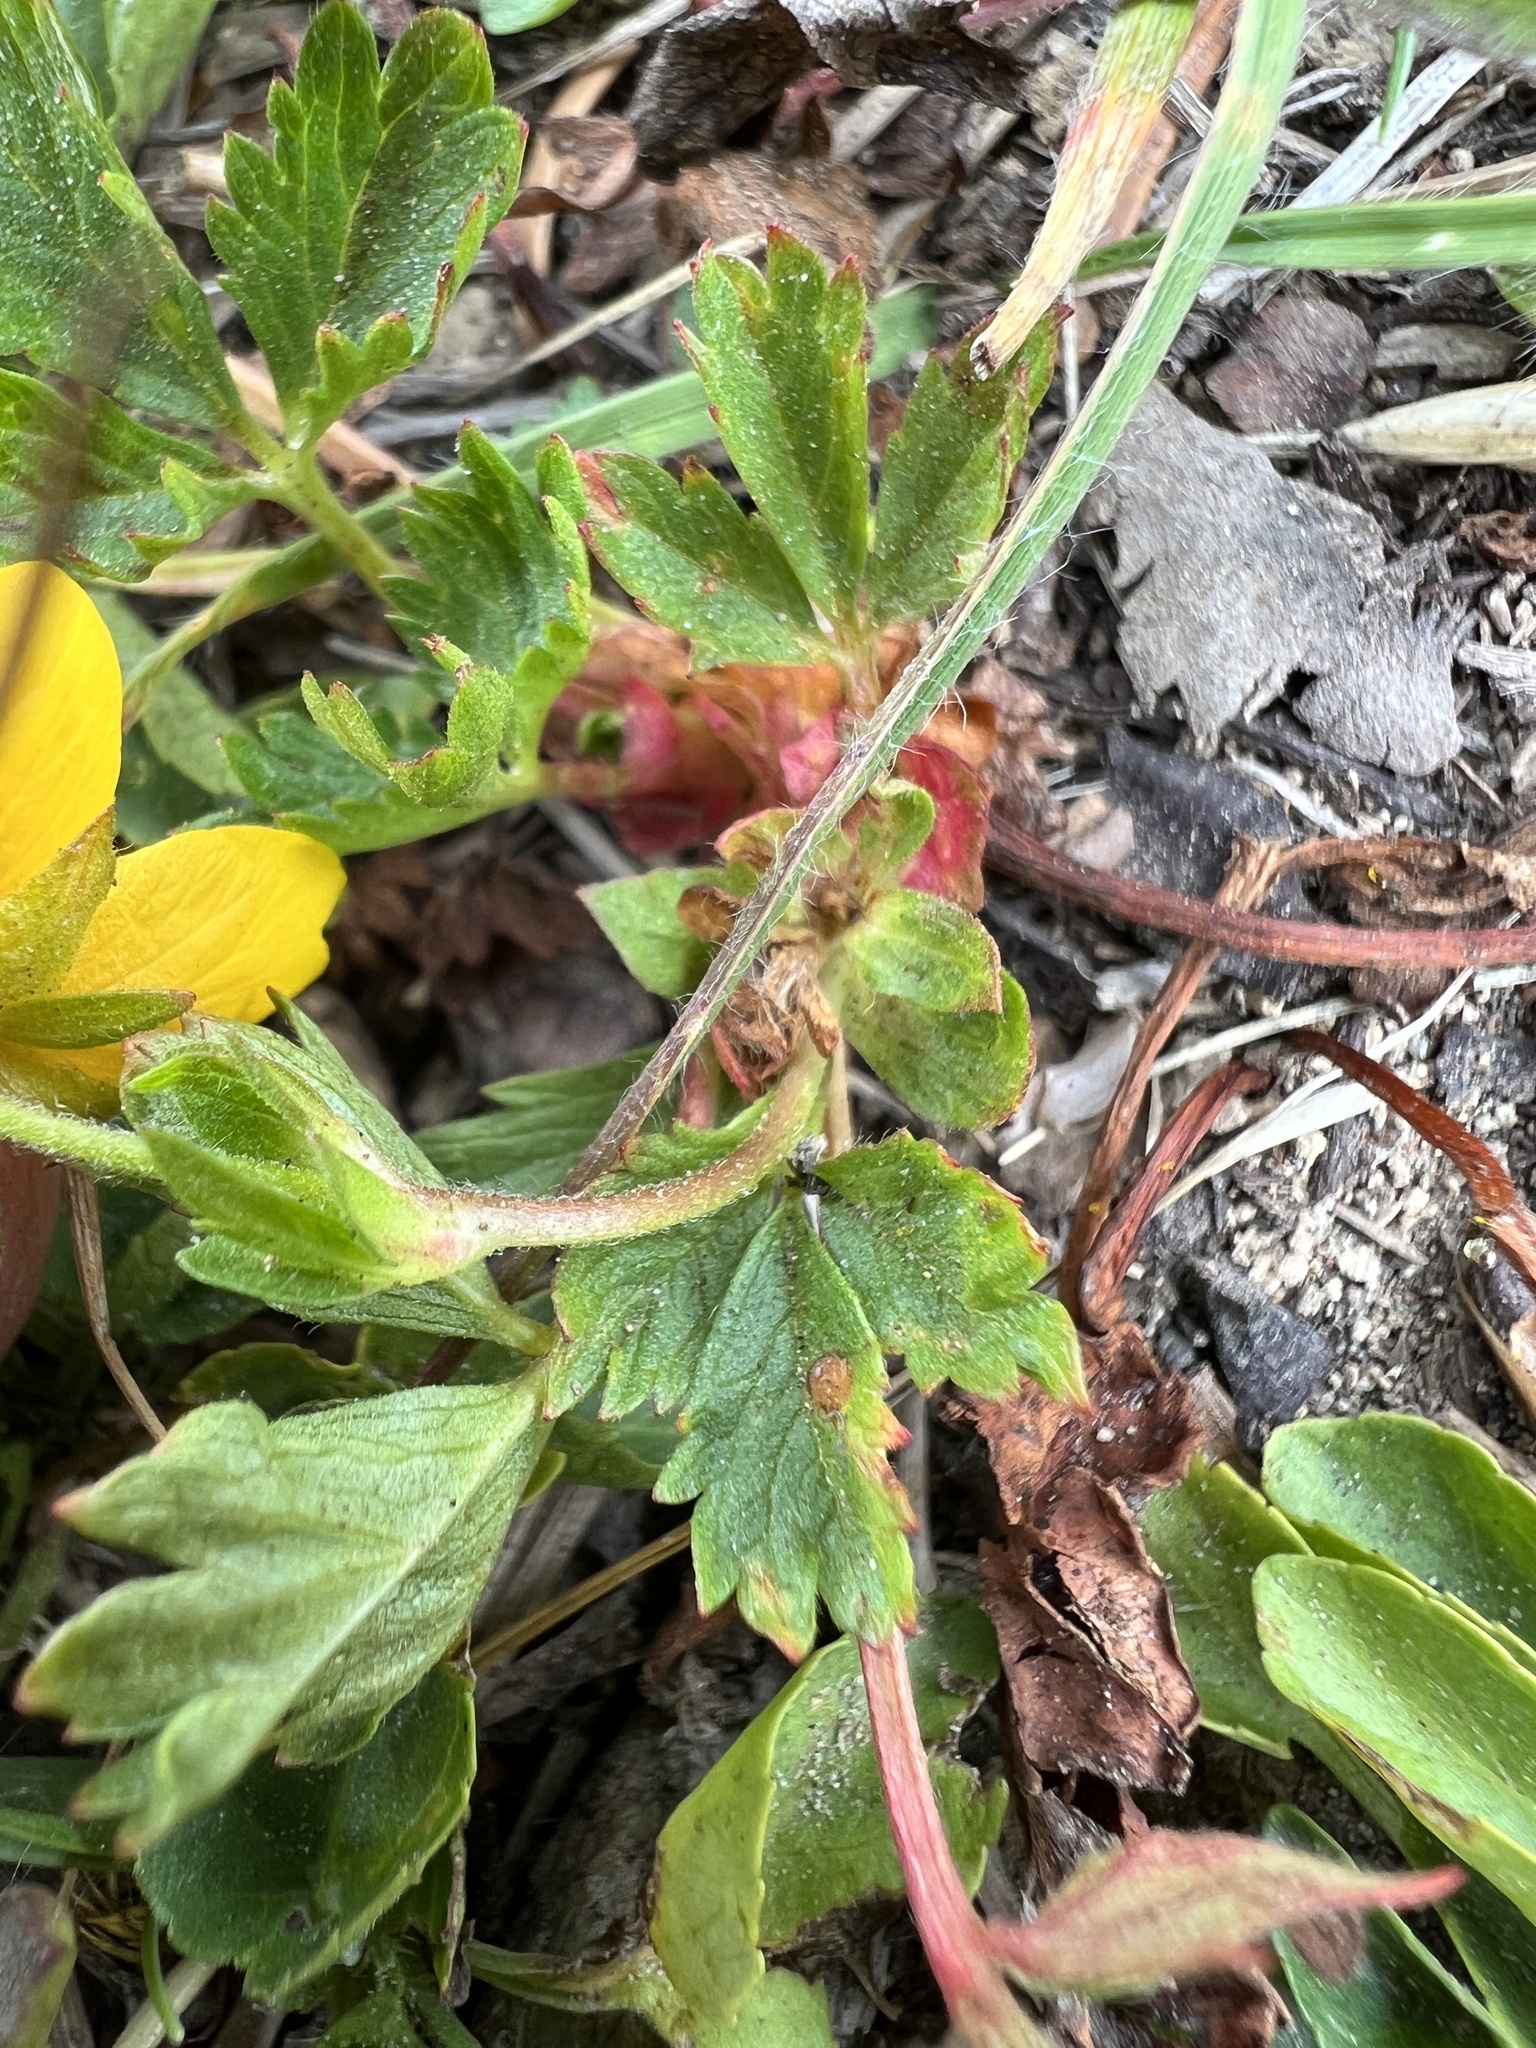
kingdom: Plantae
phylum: Tracheophyta
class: Magnoliopsida
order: Rosales
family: Rosaceae
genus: Potentilla
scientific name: Potentilla flabellifolia
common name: Mount rainier cinquefoil
